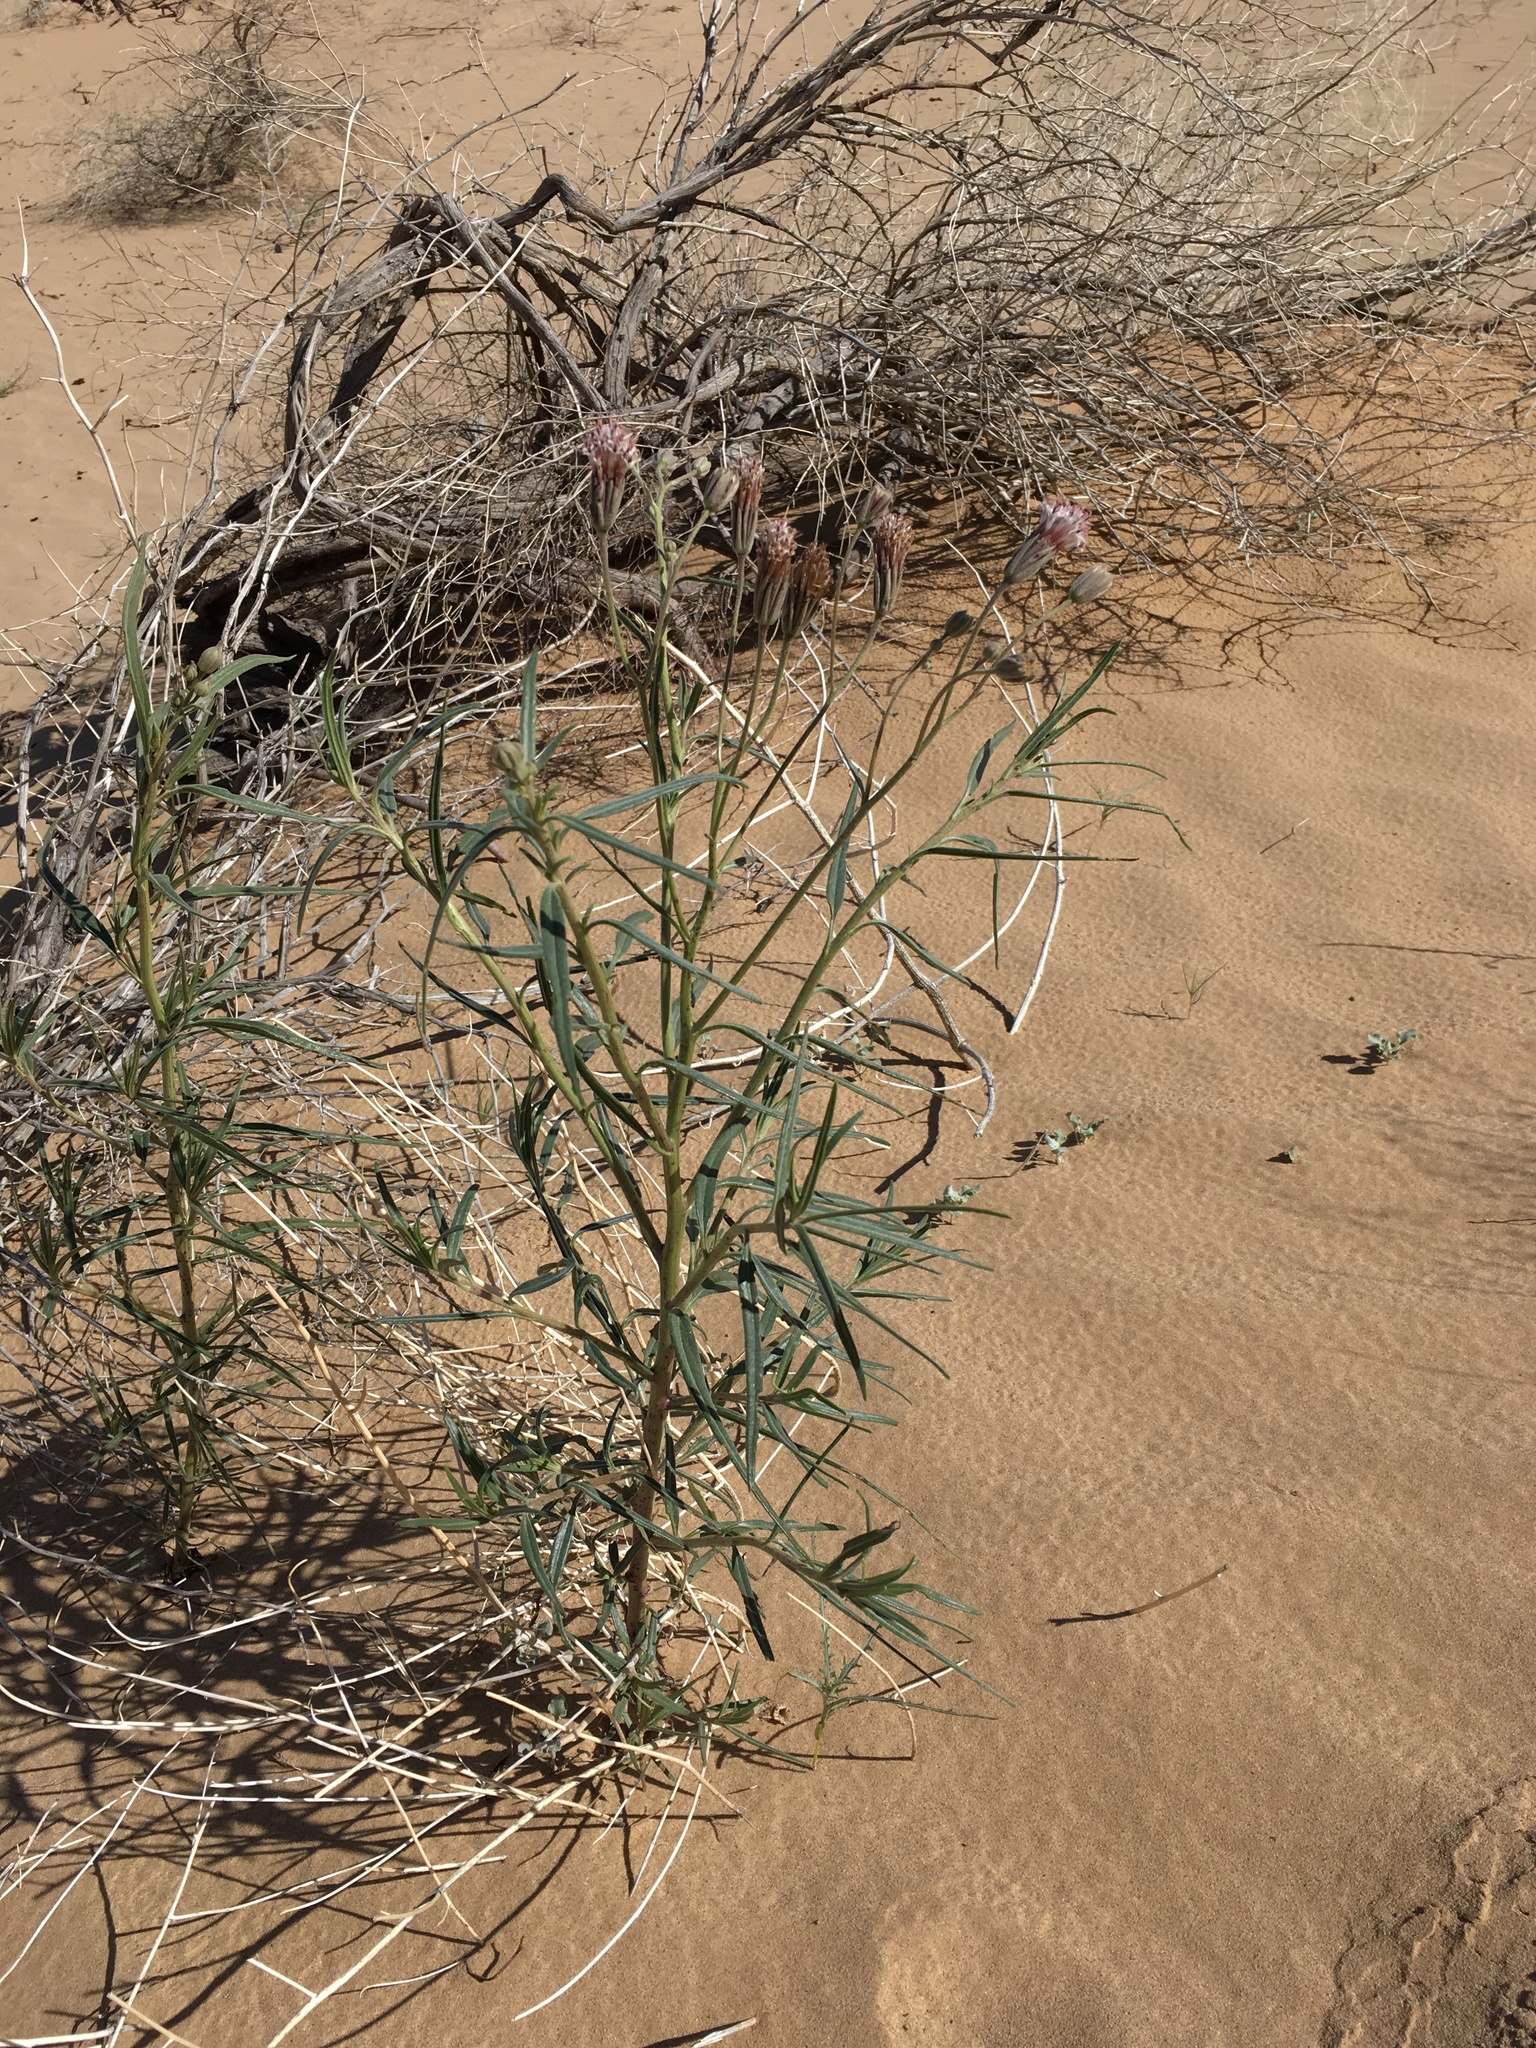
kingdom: Plantae
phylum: Tracheophyta
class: Magnoliopsida
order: Asterales
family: Asteraceae
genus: Palafoxia
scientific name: Palafoxia arida
